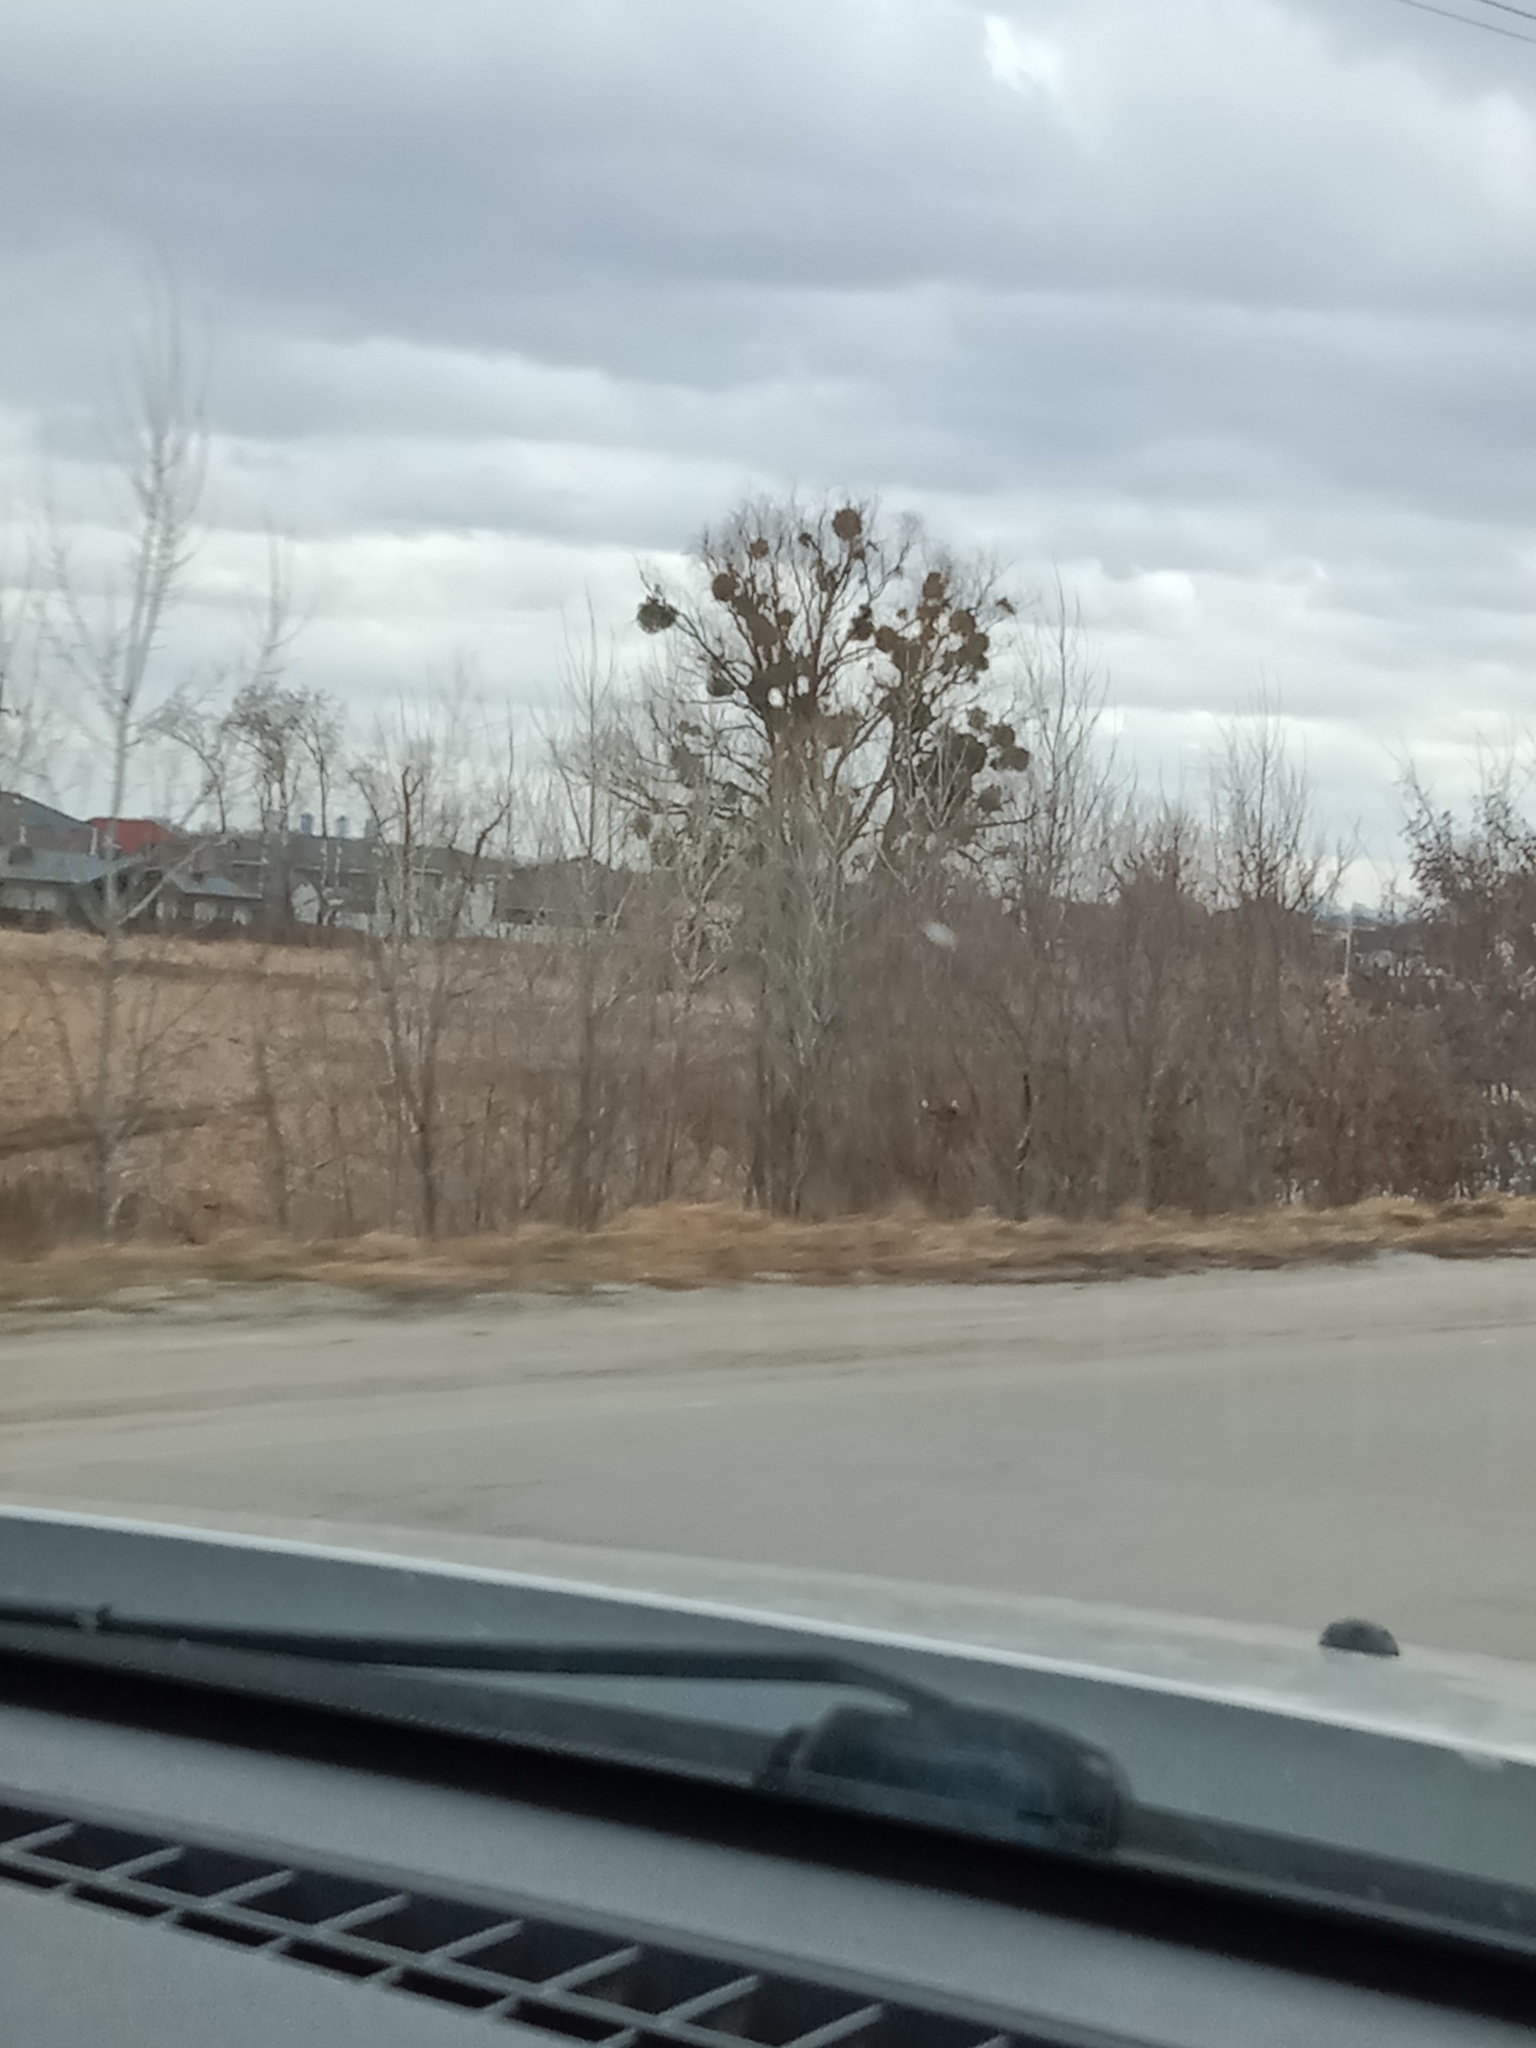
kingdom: Plantae
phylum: Tracheophyta
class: Magnoliopsida
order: Santalales
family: Viscaceae
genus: Viscum
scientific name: Viscum album
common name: Mistletoe
